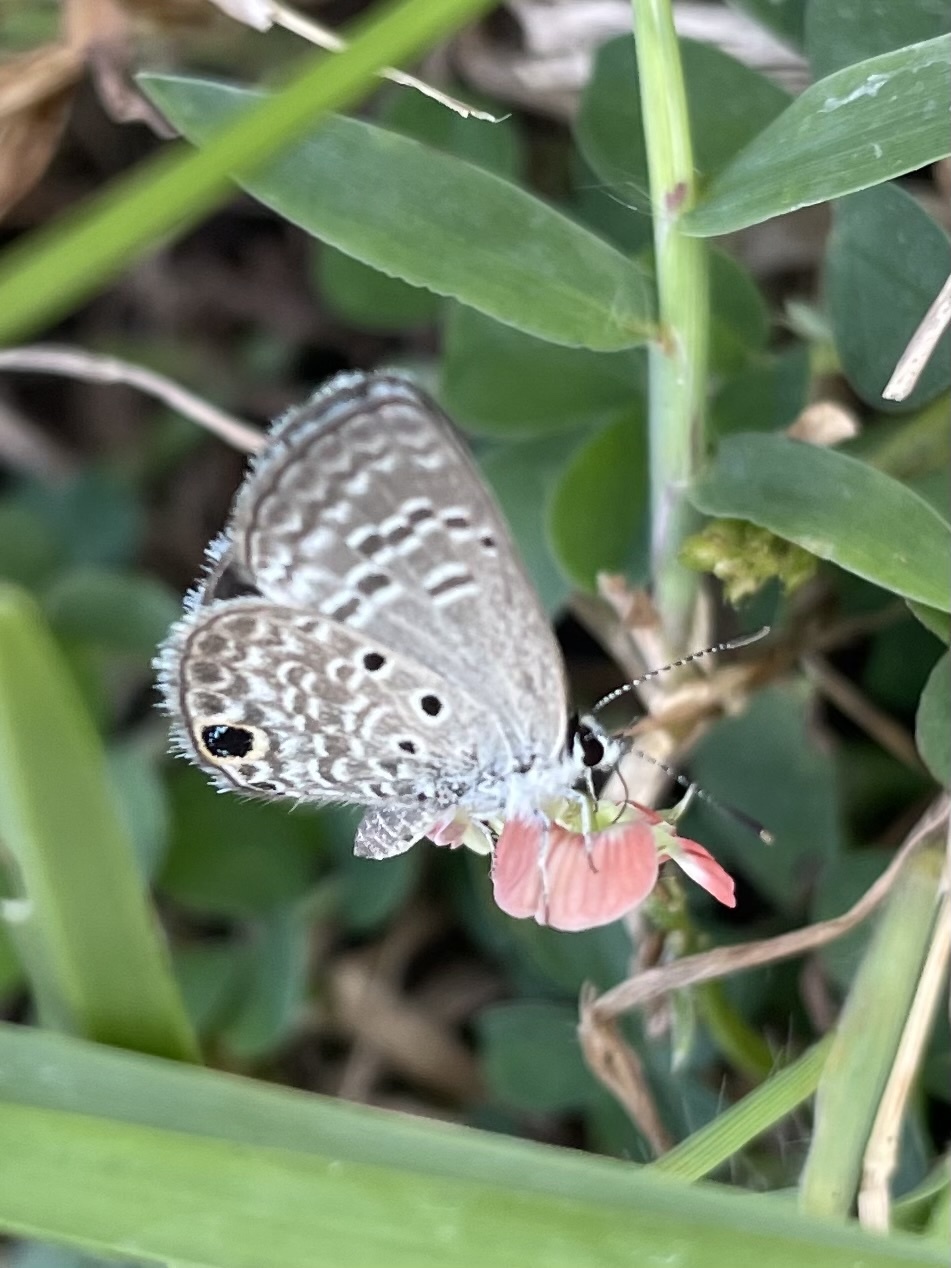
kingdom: Animalia
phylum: Arthropoda
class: Insecta
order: Lepidoptera
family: Lycaenidae
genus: Hemiargus
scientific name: Hemiargus ceraunus
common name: Ceraunus blue
